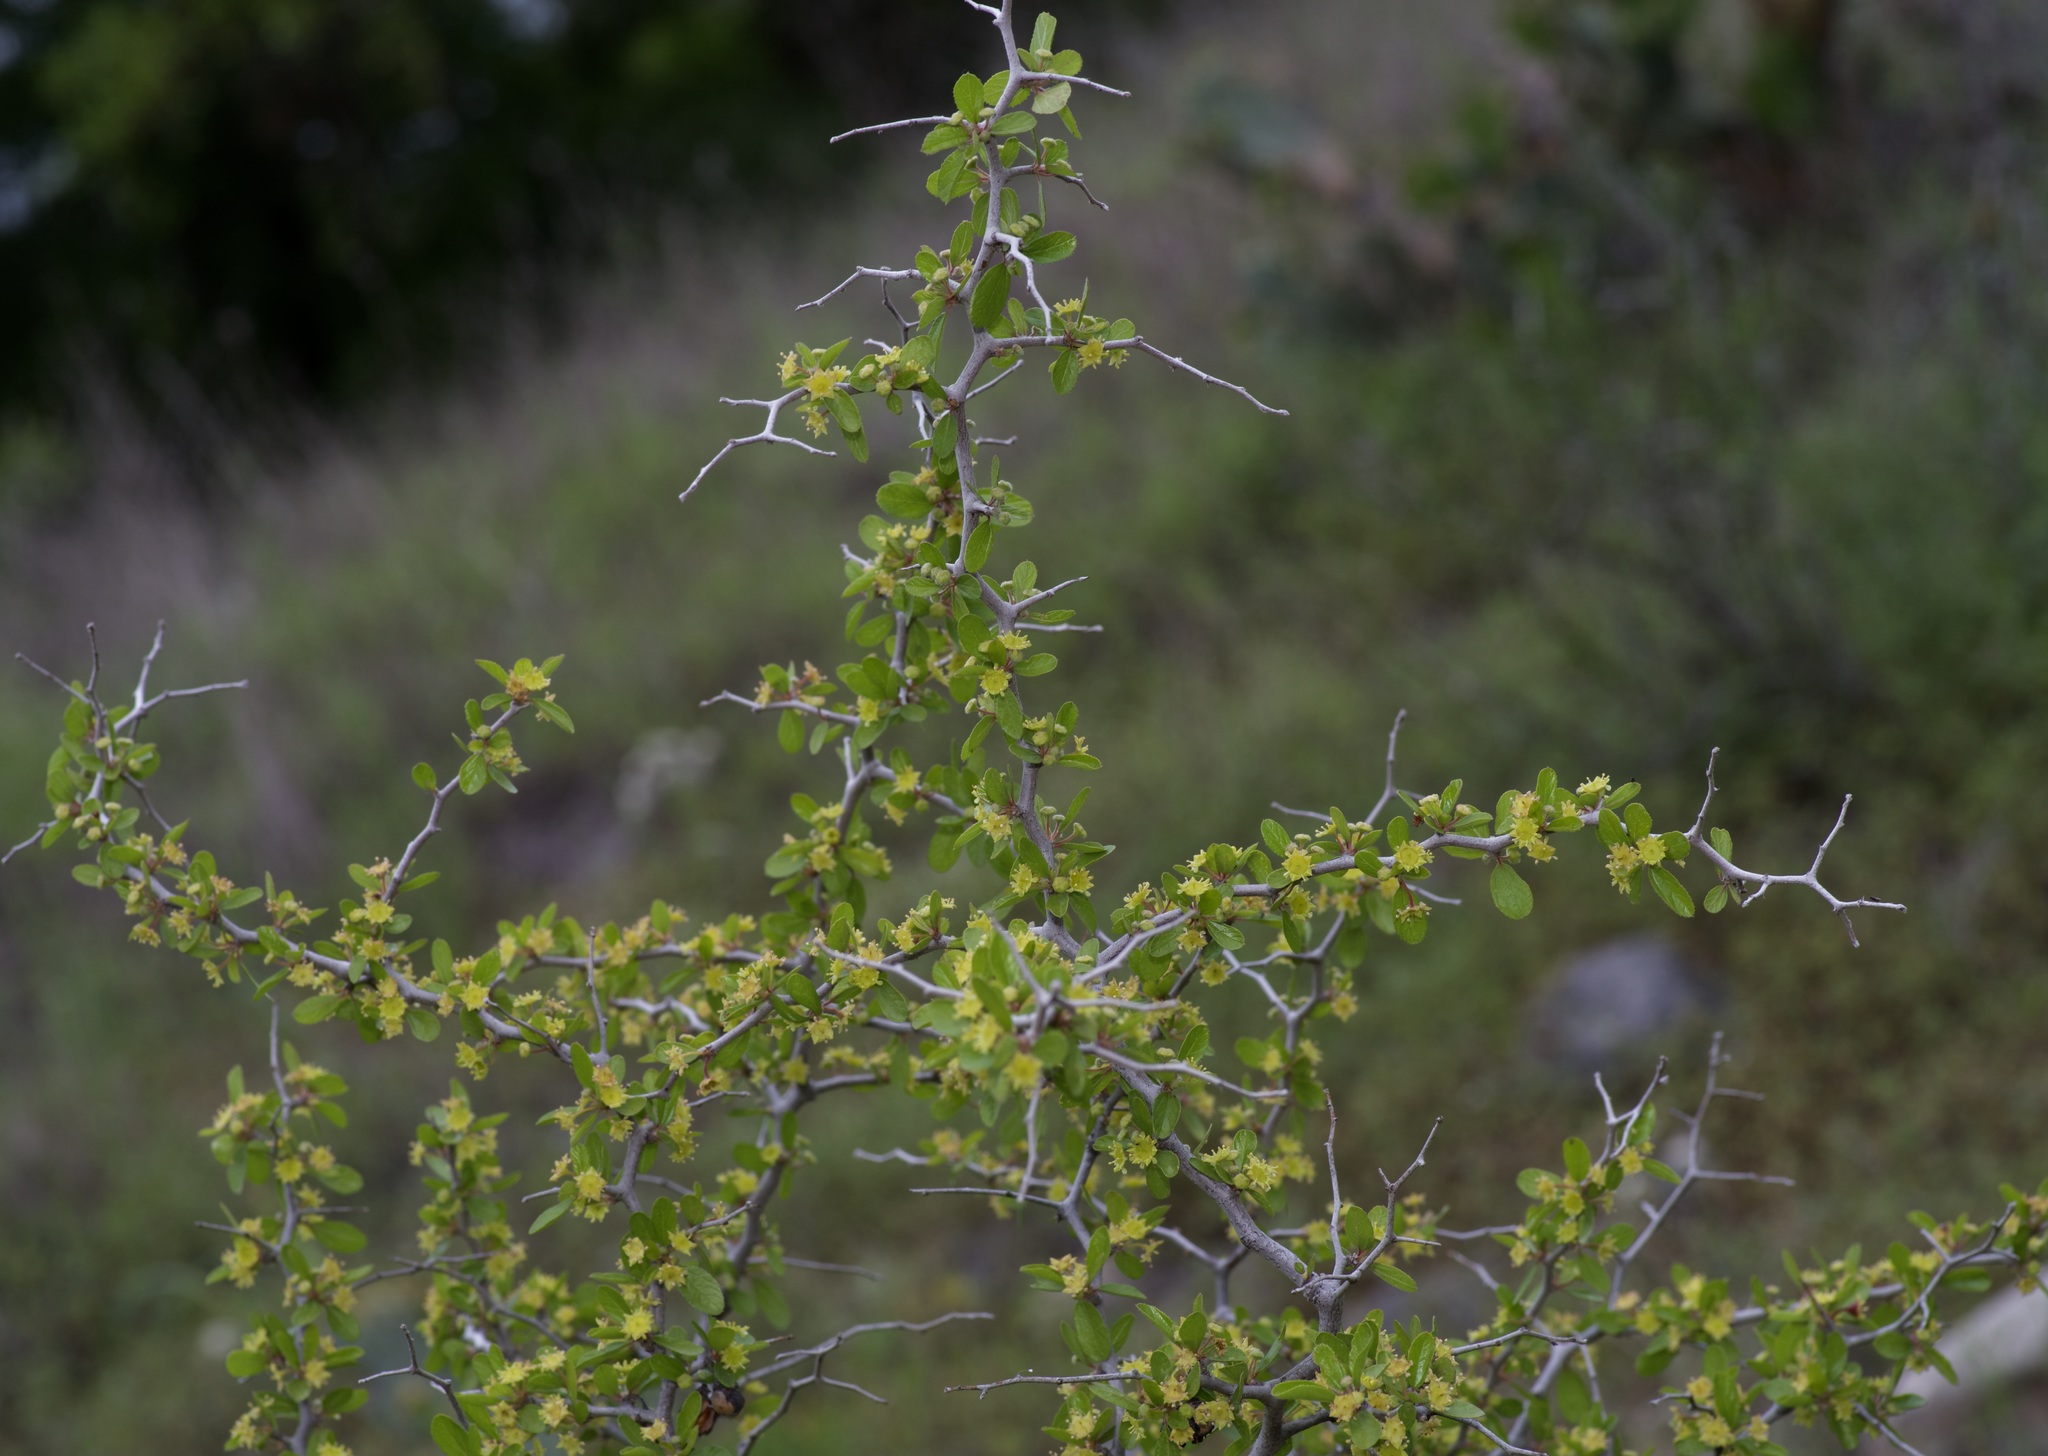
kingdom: Plantae
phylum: Tracheophyta
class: Magnoliopsida
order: Rosales
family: Rhamnaceae
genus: Colubrina
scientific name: Colubrina texensis
